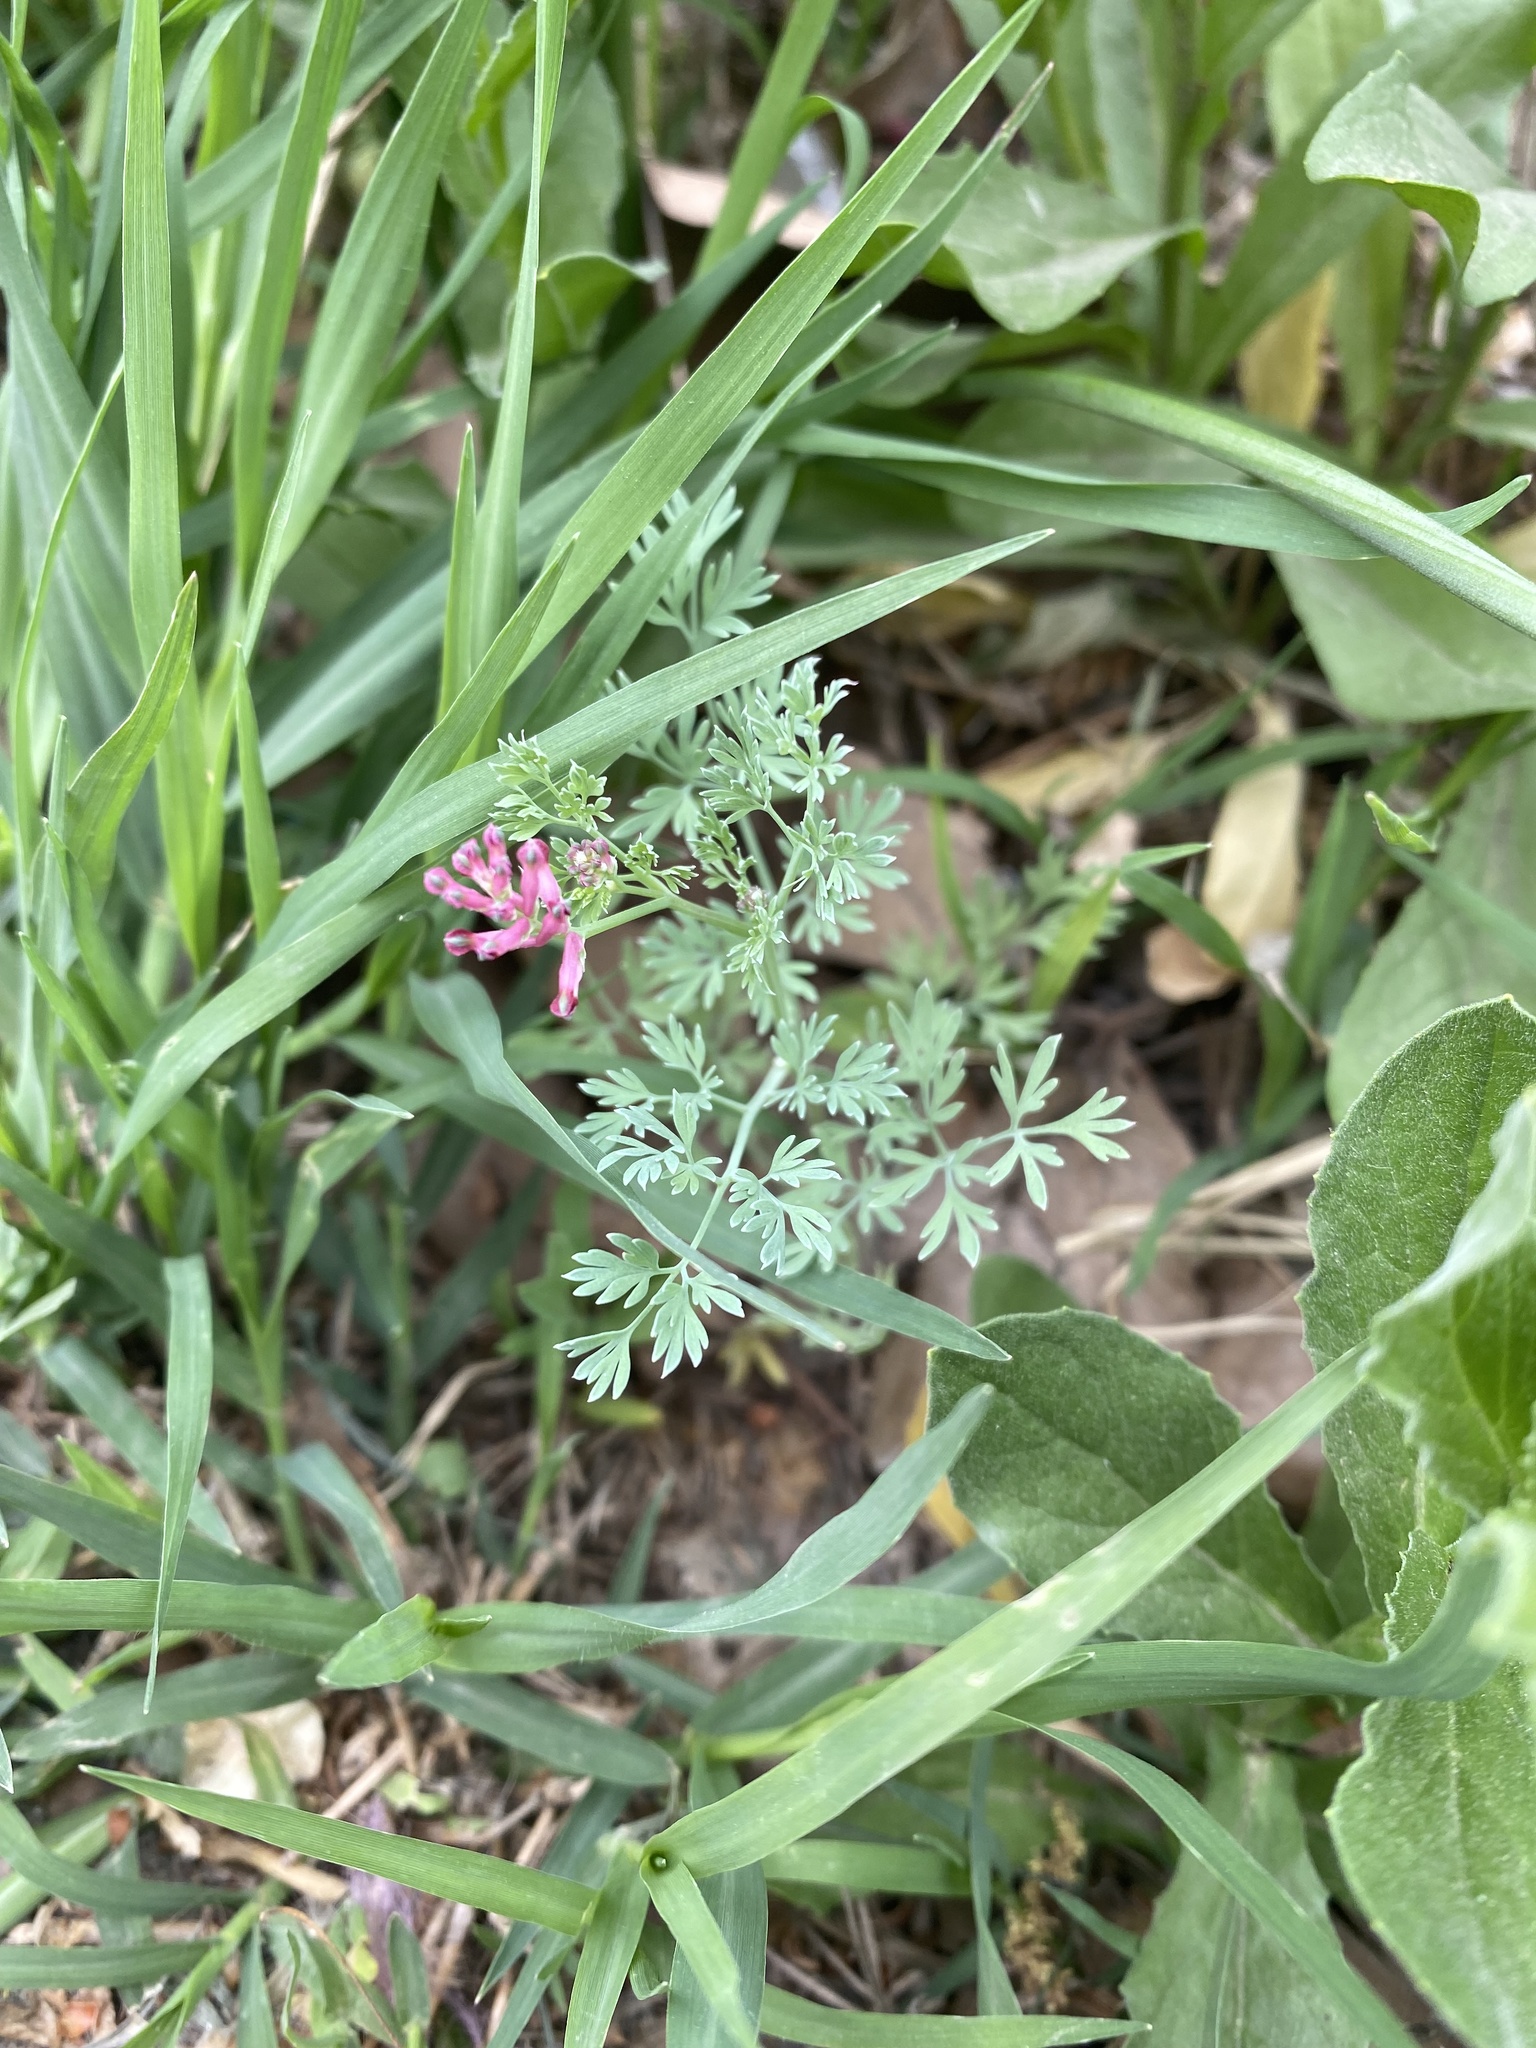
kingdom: Plantae
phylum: Tracheophyta
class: Magnoliopsida
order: Ranunculales
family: Papaveraceae
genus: Fumaria
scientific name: Fumaria schleicheri
